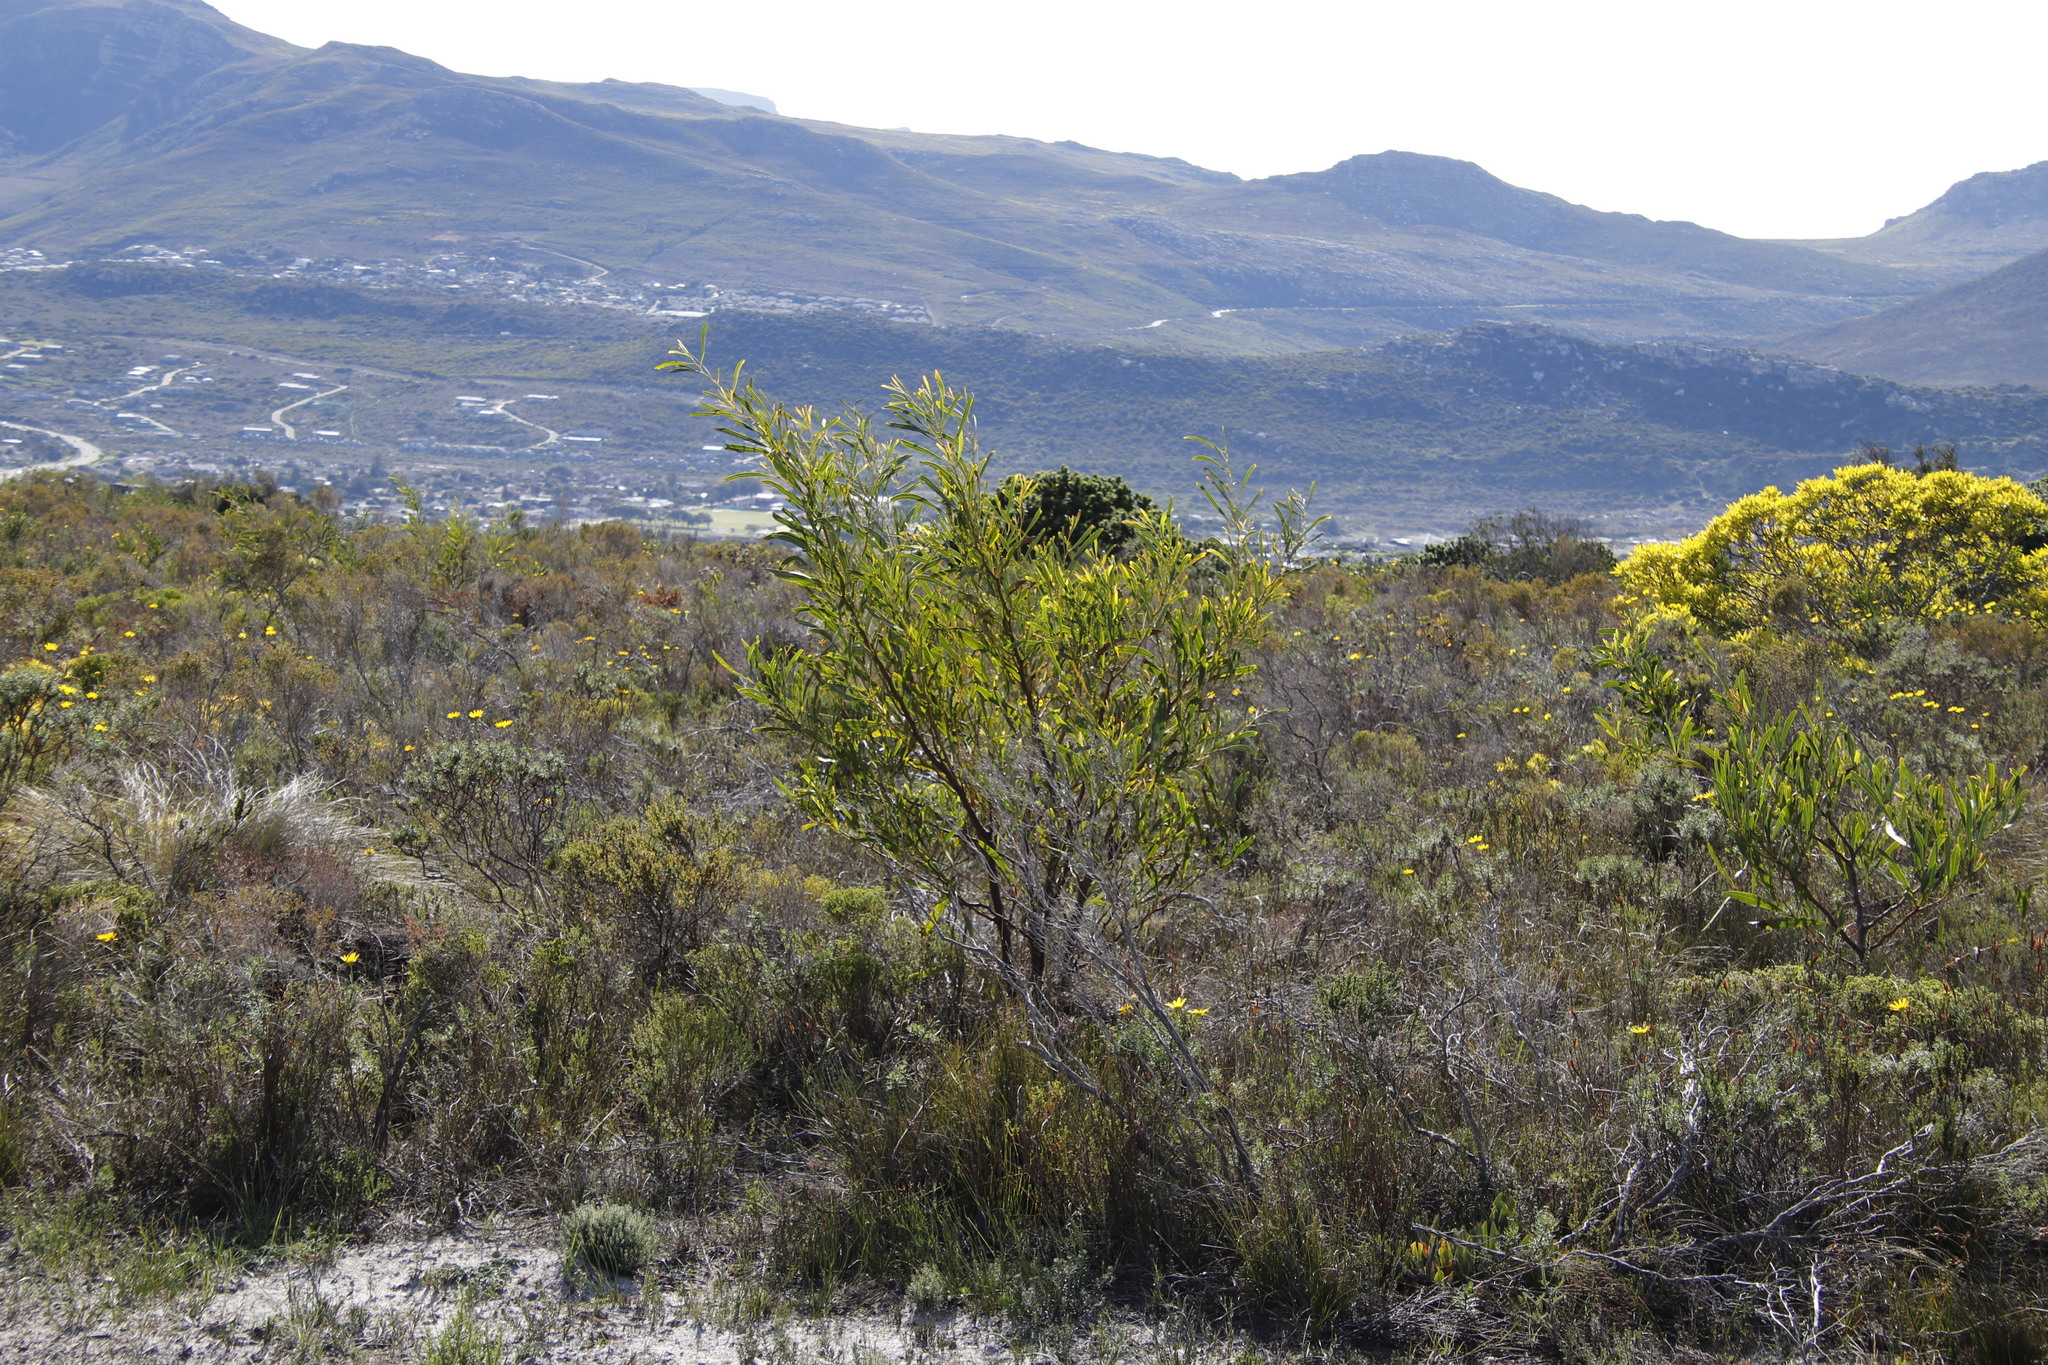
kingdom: Plantae
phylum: Tracheophyta
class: Magnoliopsida
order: Fabales
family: Fabaceae
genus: Acacia
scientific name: Acacia saligna
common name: Orange wattle
